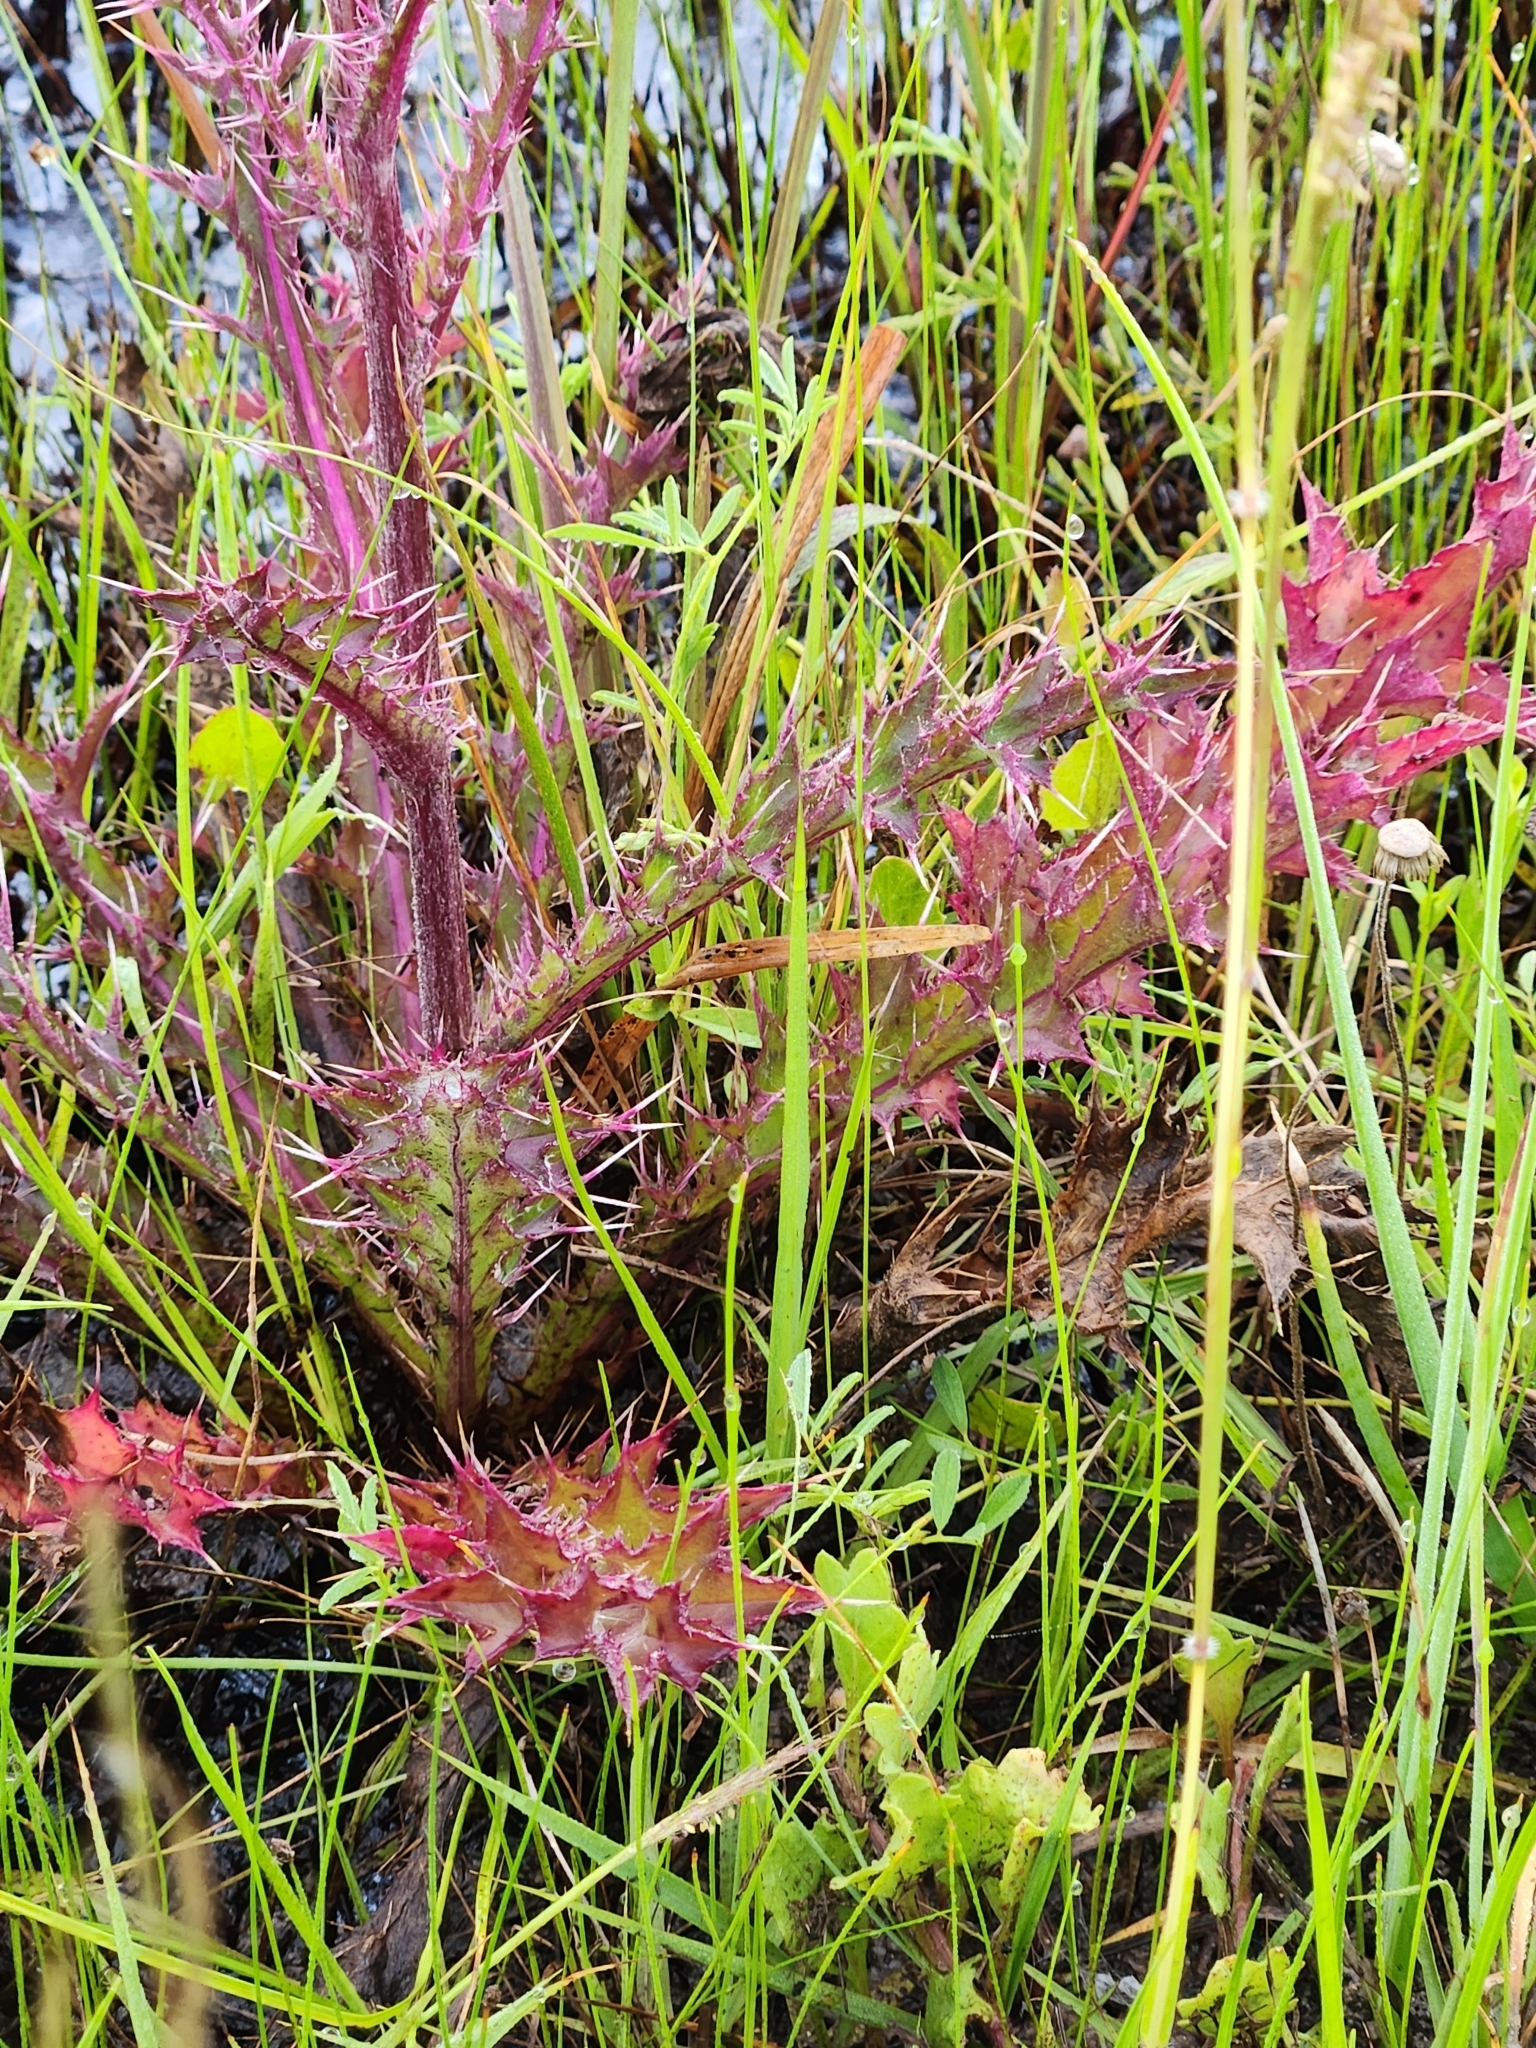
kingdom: Plantae
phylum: Tracheophyta
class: Magnoliopsida
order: Asterales
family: Asteraceae
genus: Cirsium
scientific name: Cirsium horridulum
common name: Bristly thistle
